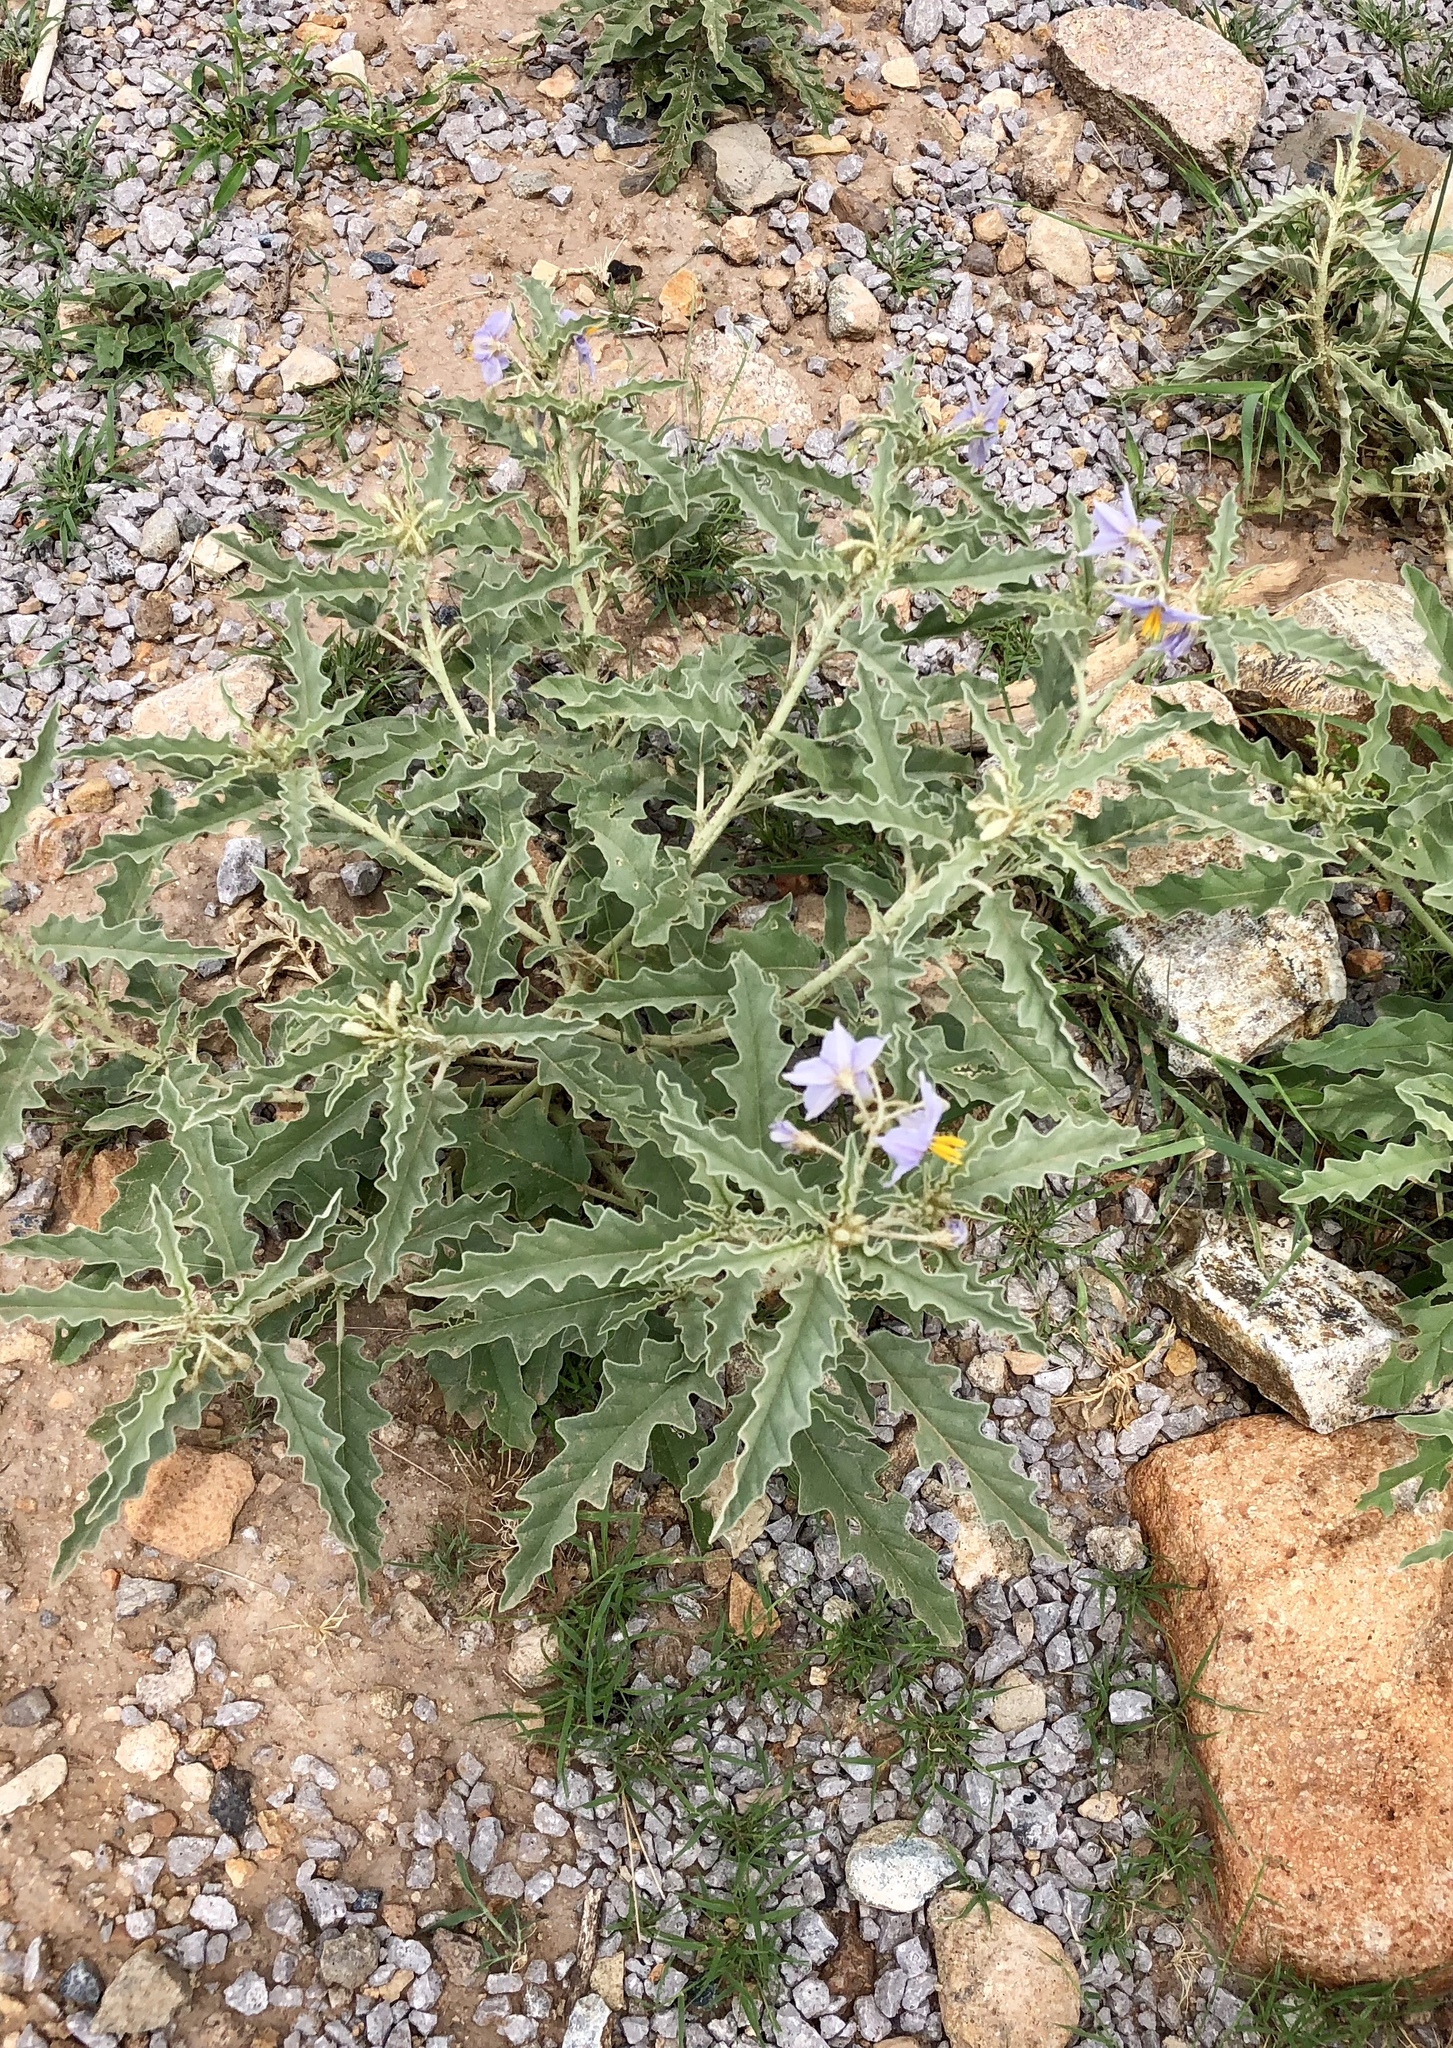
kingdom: Plantae
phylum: Tracheophyta
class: Magnoliopsida
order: Solanales
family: Solanaceae
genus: Solanum
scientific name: Solanum elaeagnifolium
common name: Silverleaf nightshade
